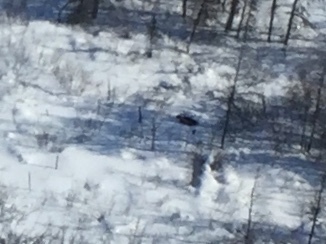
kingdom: Animalia
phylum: Chordata
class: Mammalia
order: Carnivora
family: Mustelidae
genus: Gulo
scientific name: Gulo gulo
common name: Wolverine
